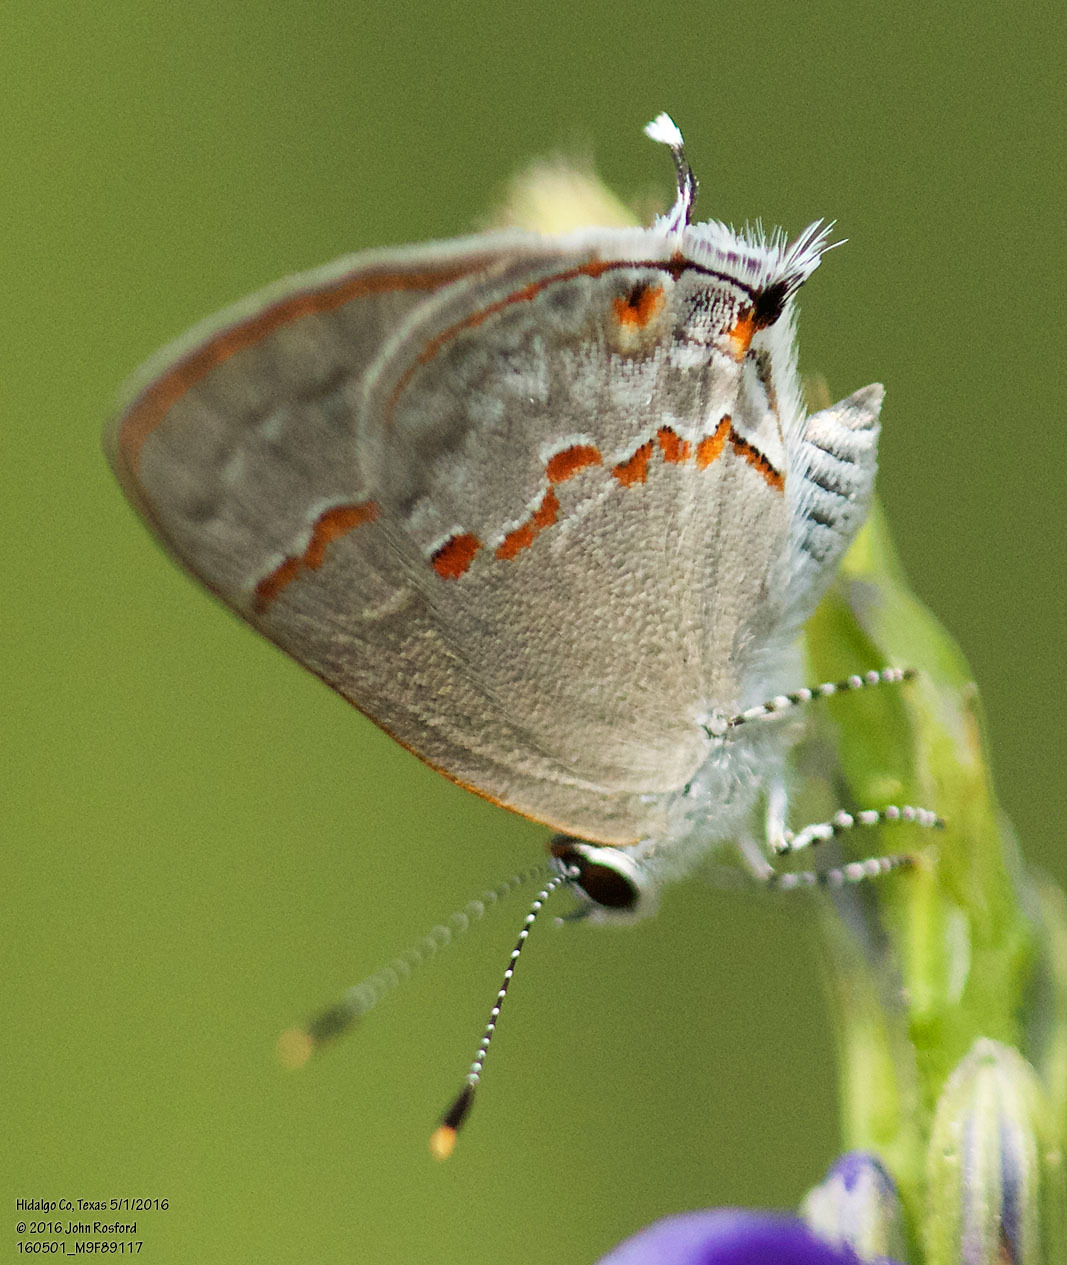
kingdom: Animalia
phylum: Arthropoda
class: Insecta
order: Lepidoptera
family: Lycaenidae
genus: Thecla
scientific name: Thecla azia
